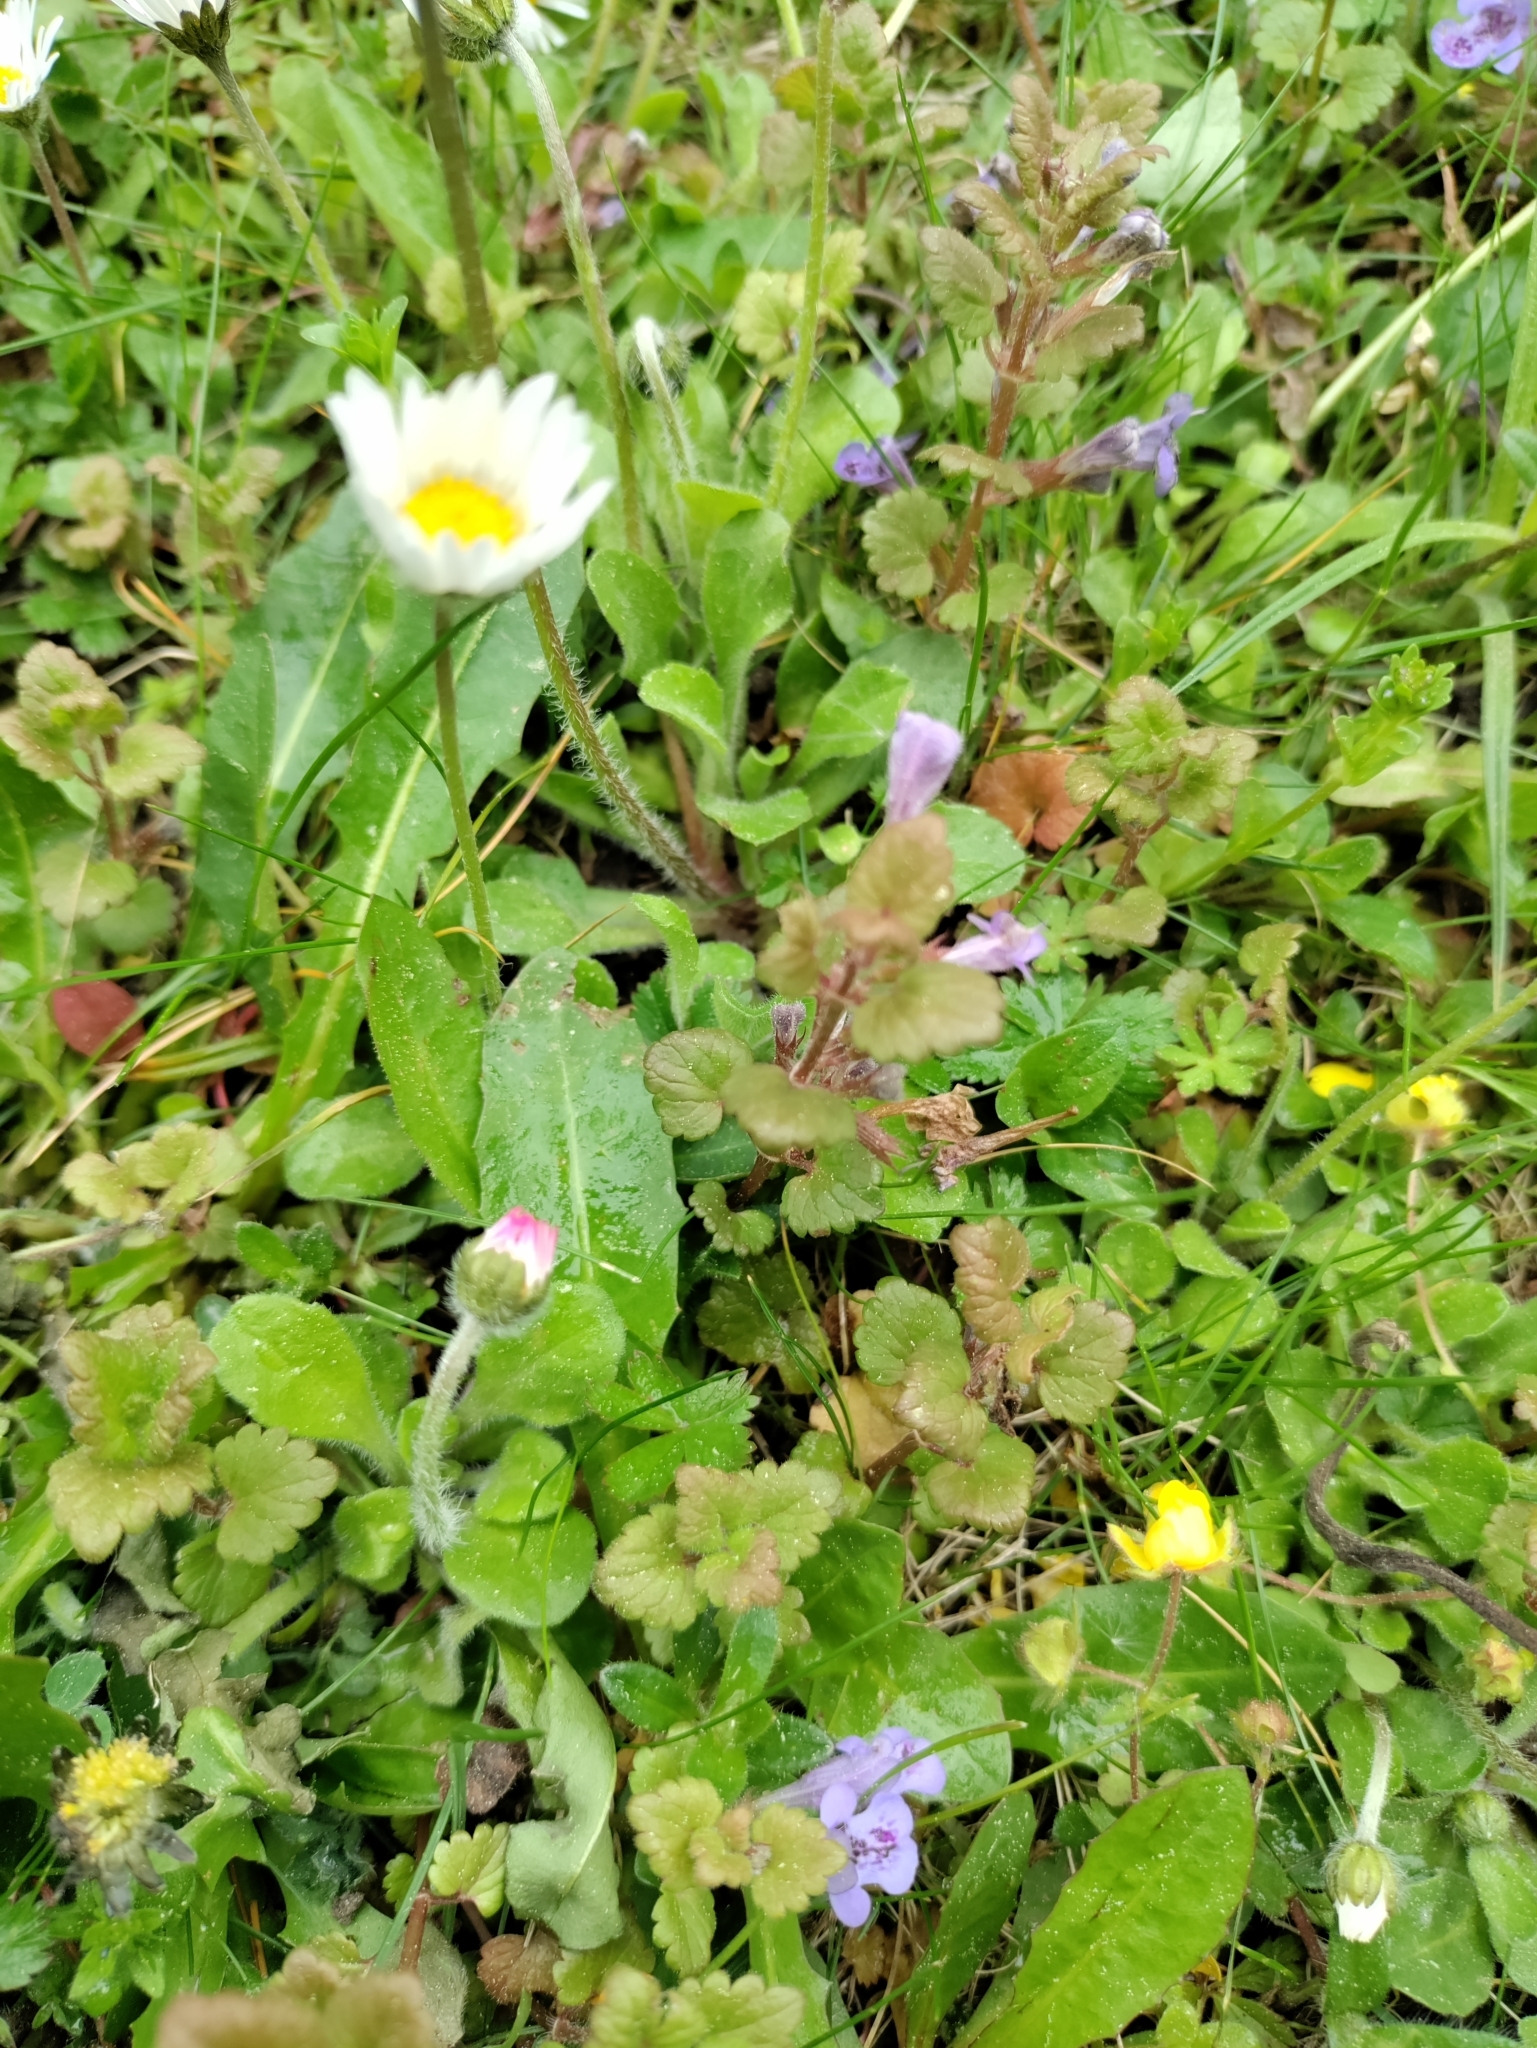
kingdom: Plantae
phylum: Tracheophyta
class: Magnoliopsida
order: Lamiales
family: Lamiaceae
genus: Glechoma
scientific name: Glechoma hederacea
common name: Ground ivy
